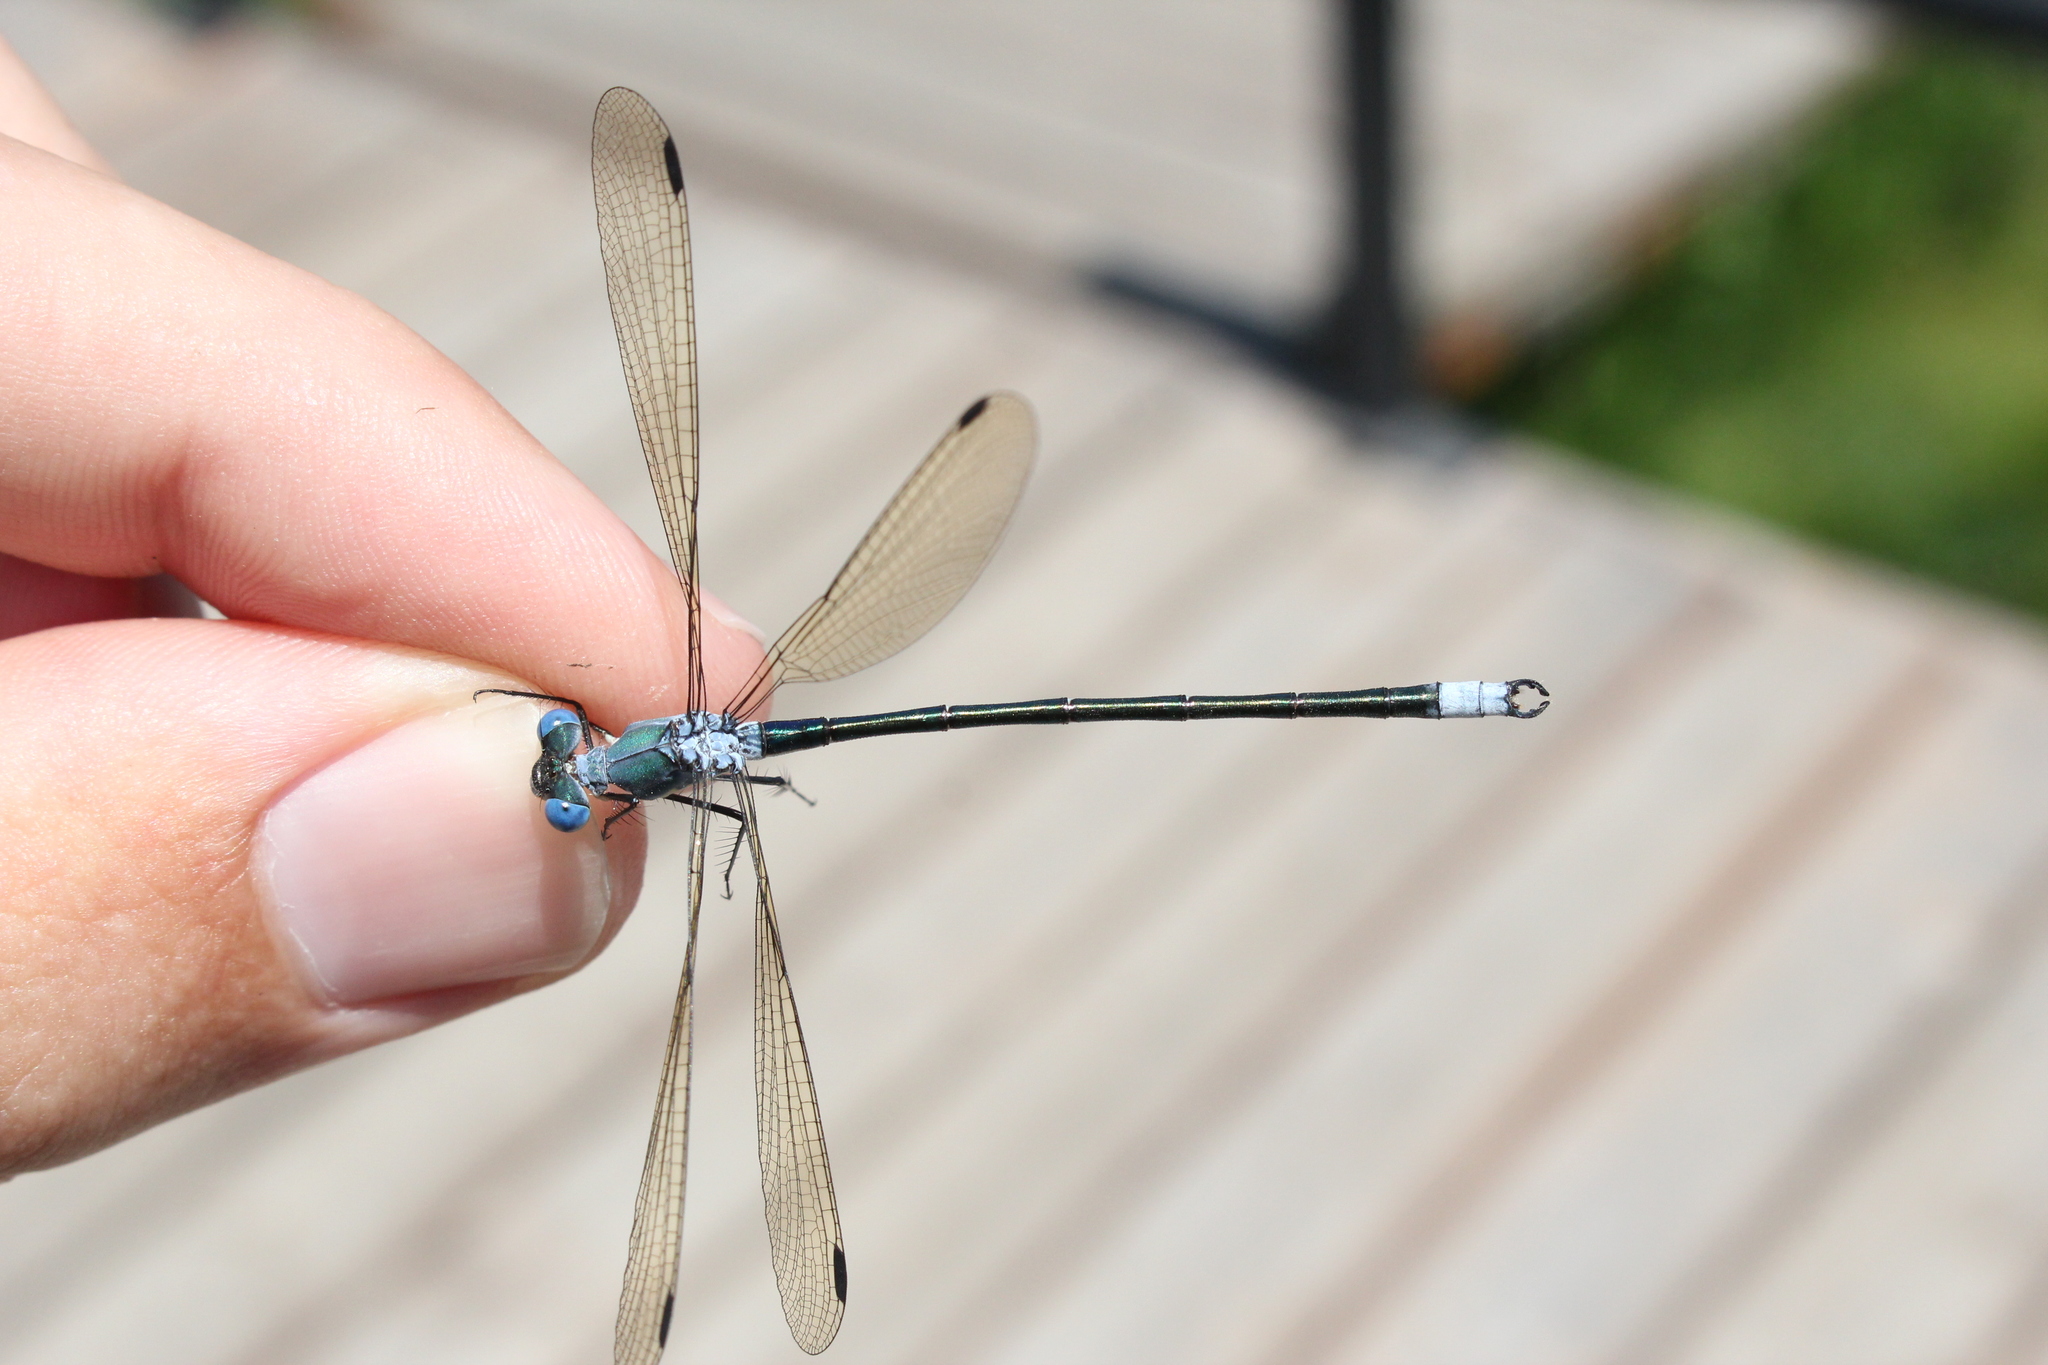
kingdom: Animalia
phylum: Arthropoda
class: Insecta
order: Odonata
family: Lestidae
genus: Lestes
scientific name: Lestes eurinus
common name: Amber-winged spreadwing
